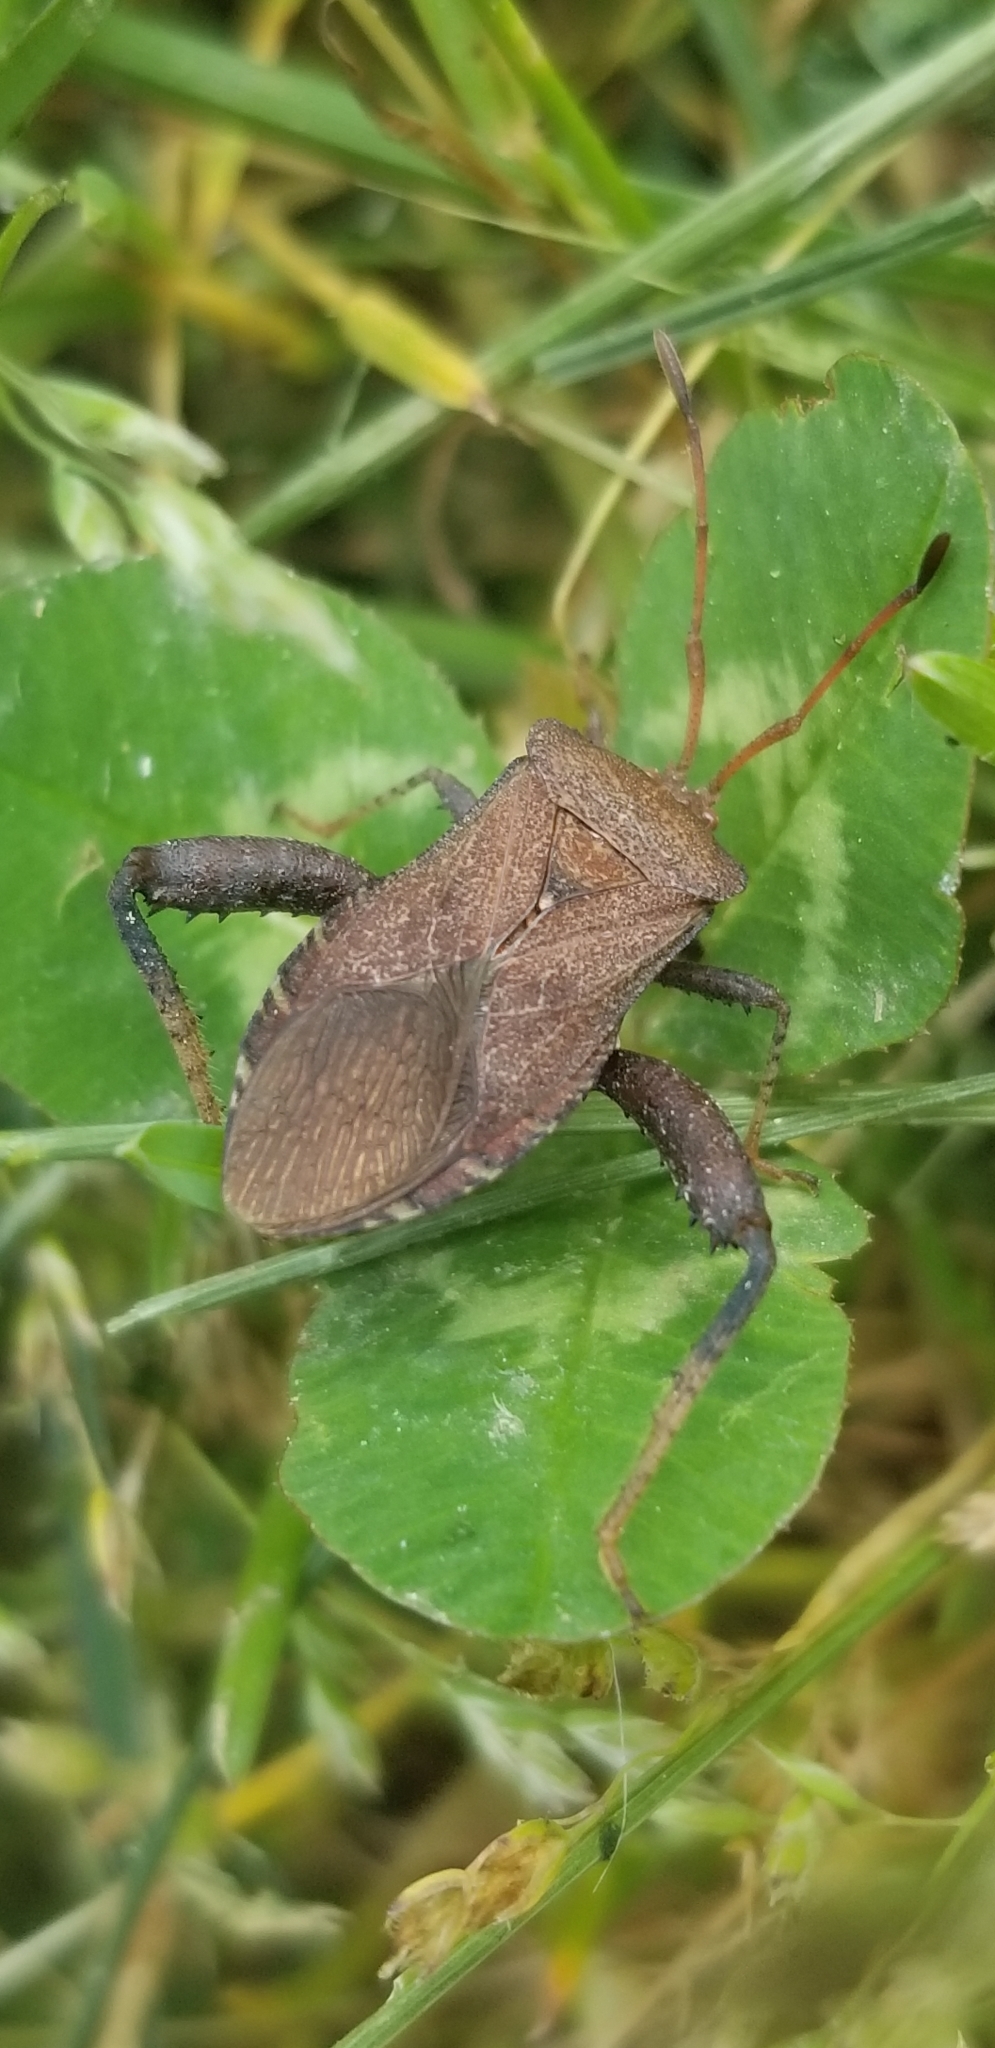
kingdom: Animalia
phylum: Arthropoda
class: Insecta
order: Hemiptera
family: Coreidae
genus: Euthochtha
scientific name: Euthochtha galeator
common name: Helmeted squash bug
